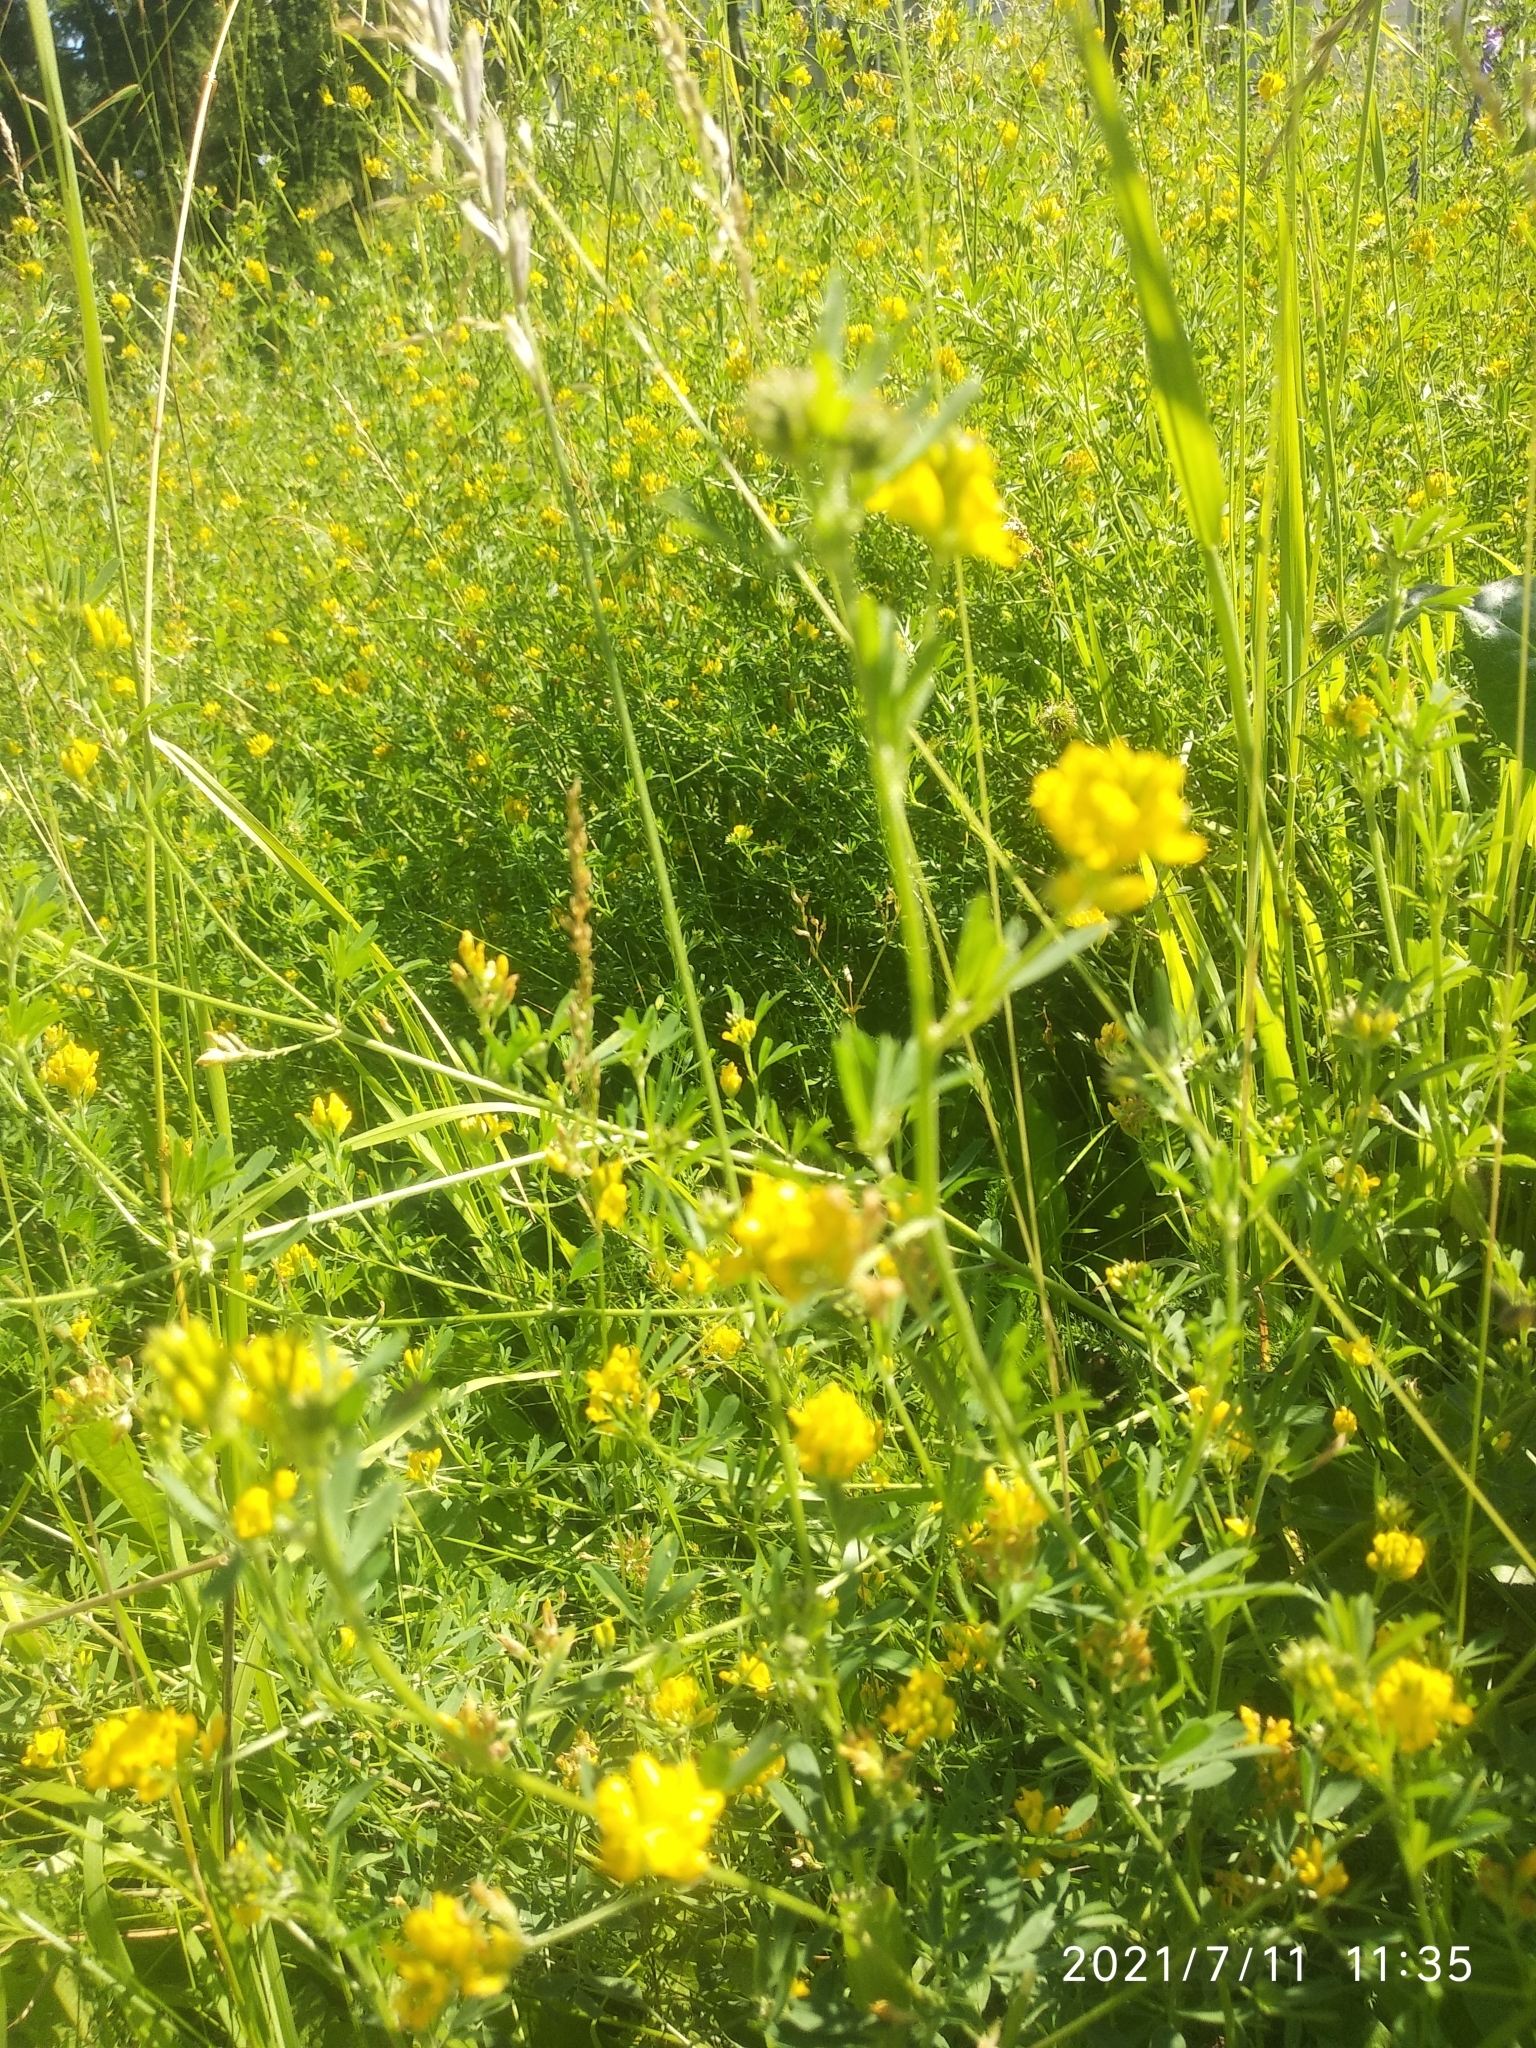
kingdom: Plantae
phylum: Tracheophyta
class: Magnoliopsida
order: Fabales
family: Fabaceae
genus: Medicago
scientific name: Medicago falcata
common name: Sickle medick
